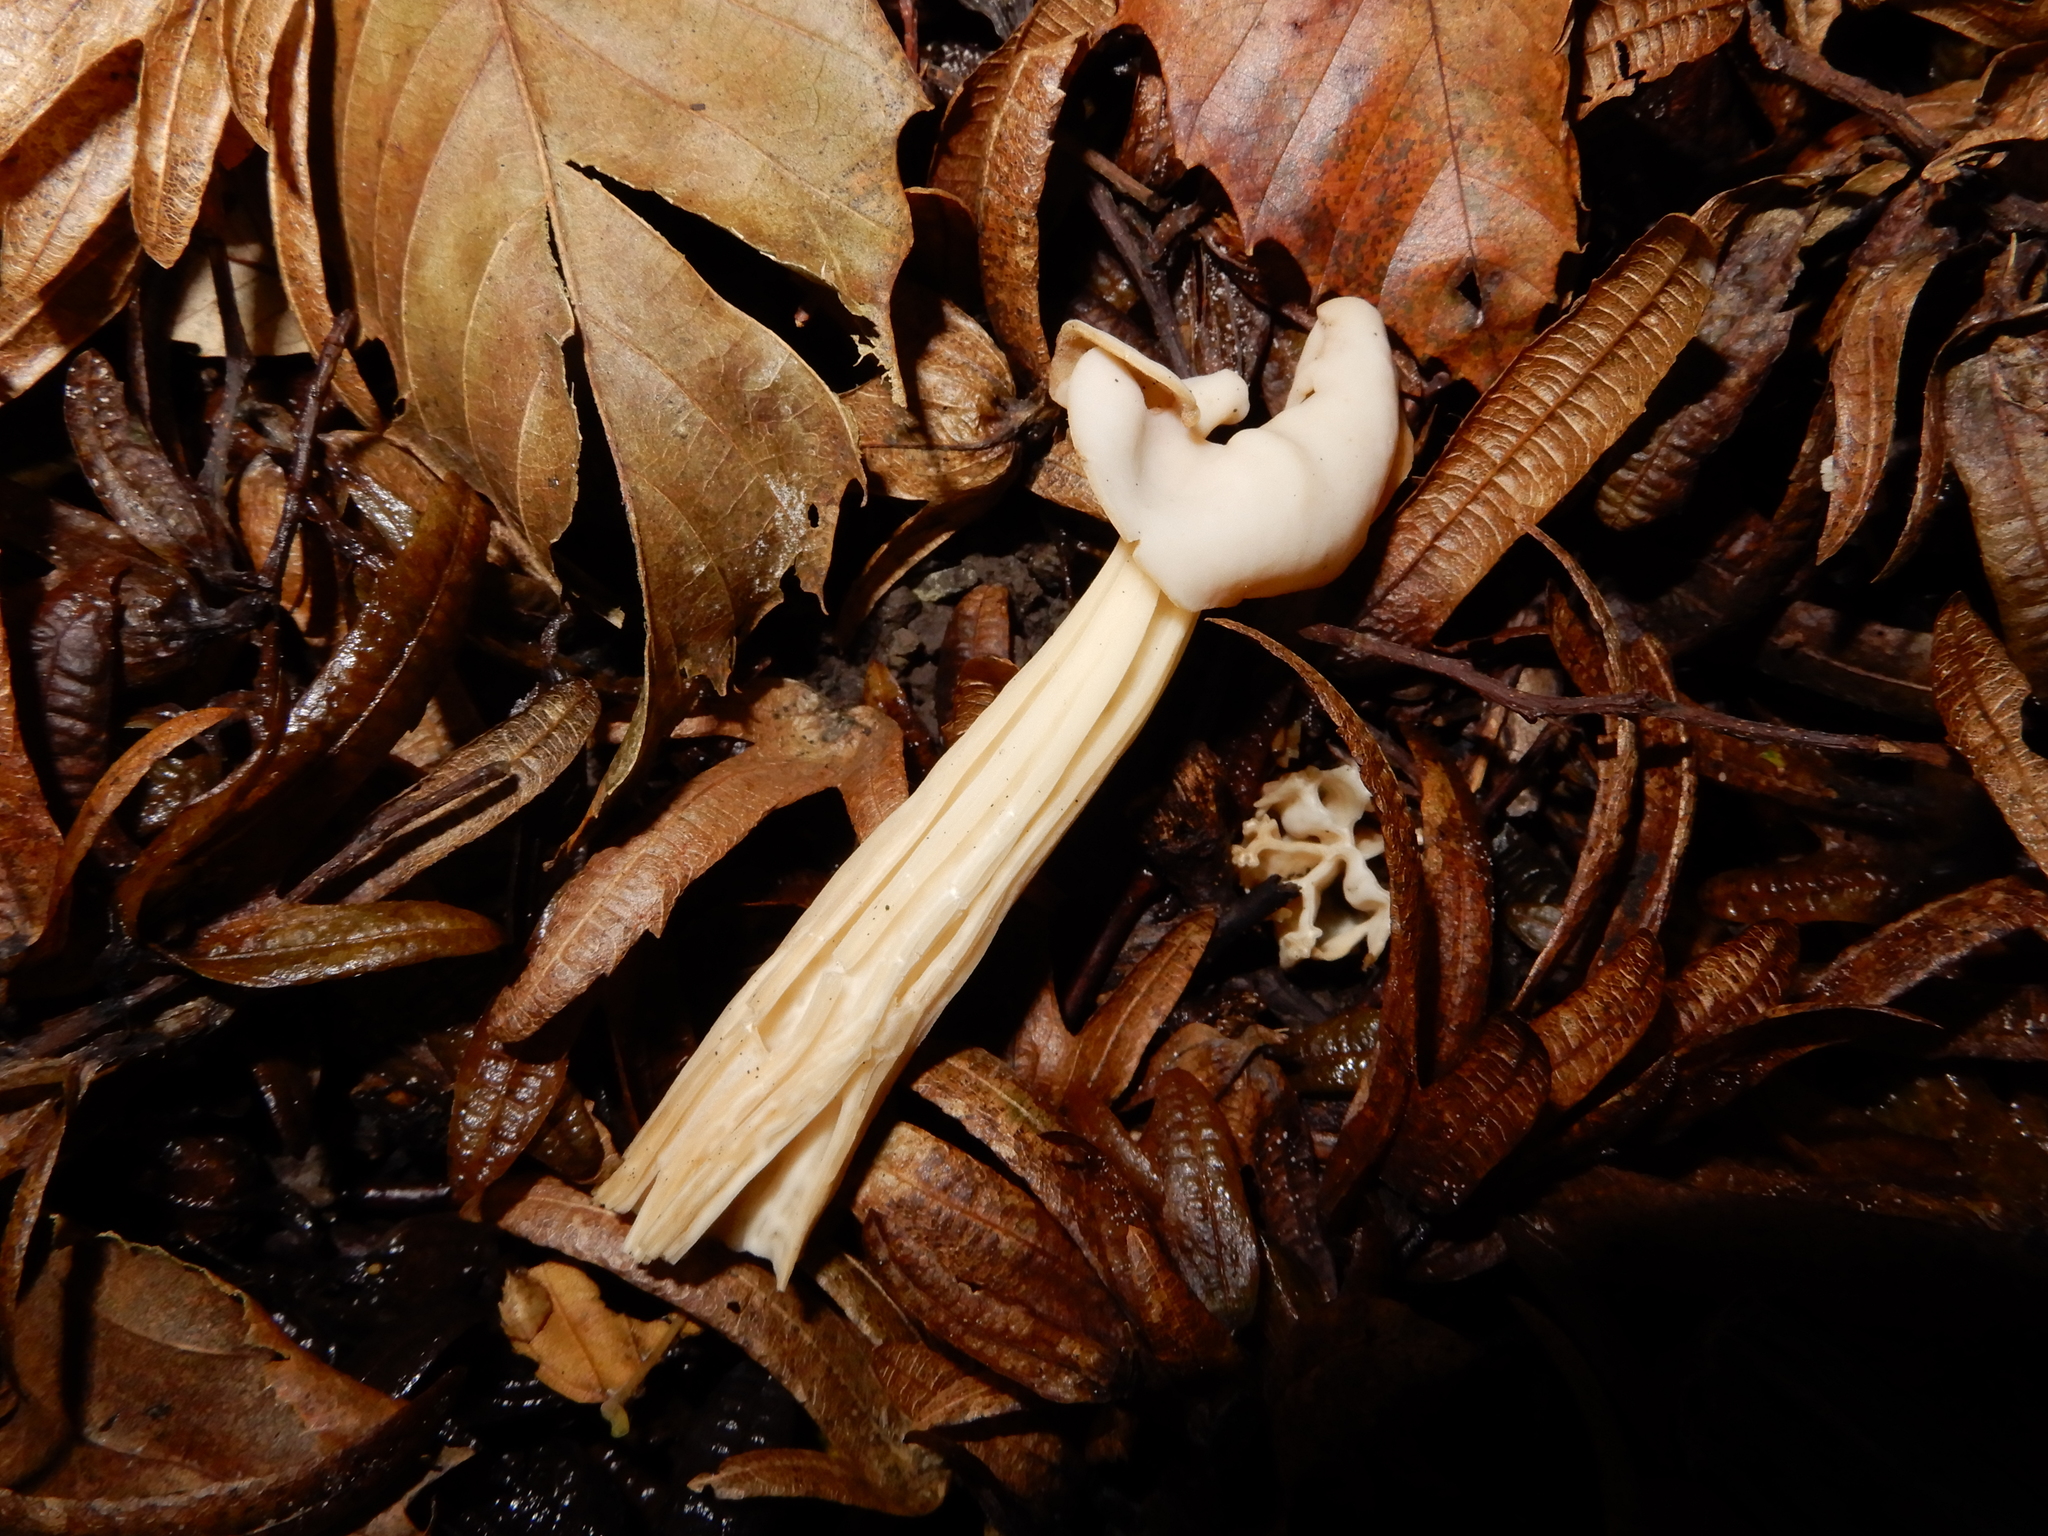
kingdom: Fungi
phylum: Ascomycota
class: Pezizomycetes
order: Pezizales
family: Helvellaceae
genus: Helvella
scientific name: Helvella crispa
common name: White saddle
